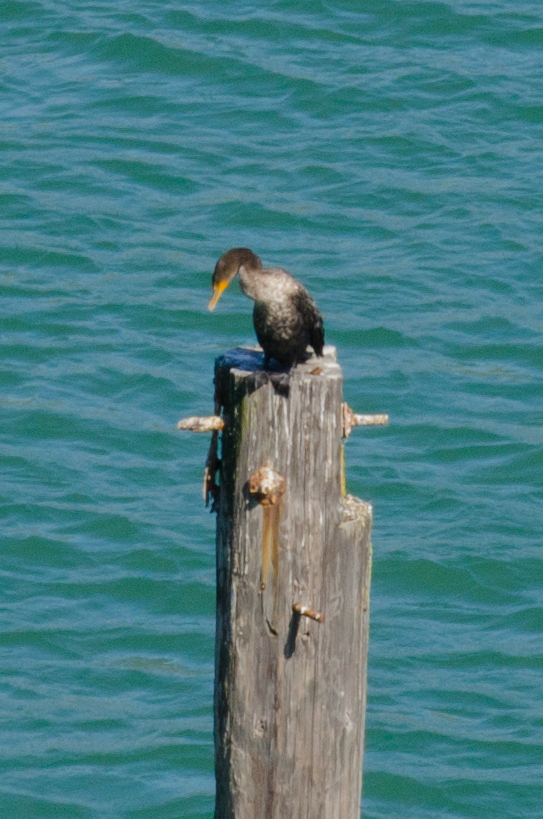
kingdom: Animalia
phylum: Chordata
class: Aves
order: Suliformes
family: Phalacrocoracidae
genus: Phalacrocorax
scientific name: Phalacrocorax auritus
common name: Double-crested cormorant
